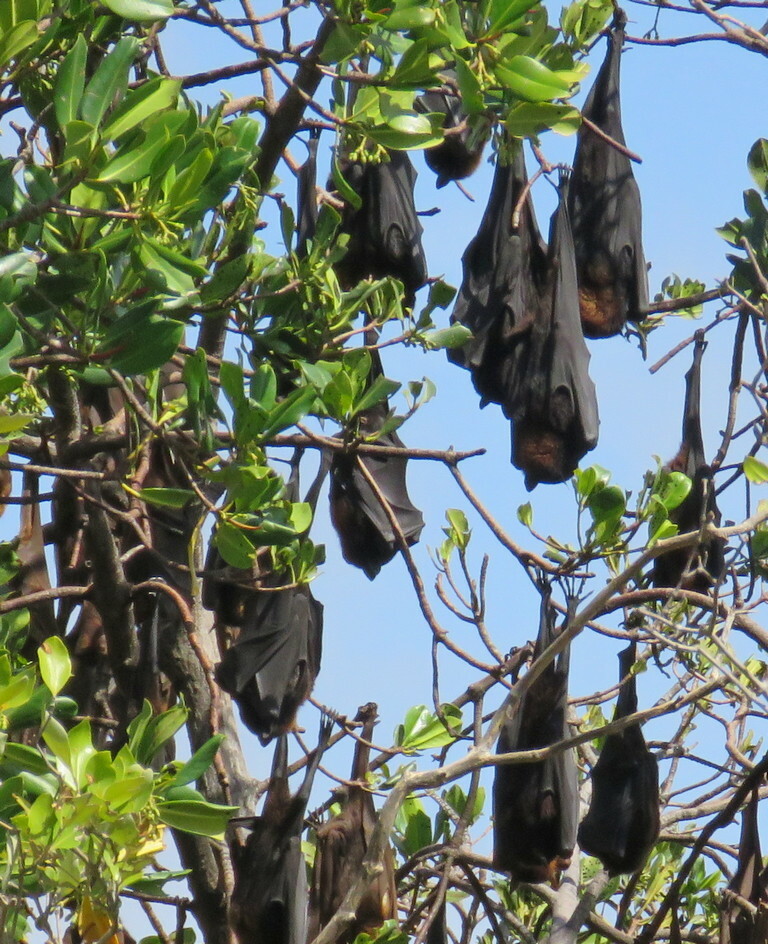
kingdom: Animalia
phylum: Chordata
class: Mammalia
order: Chiroptera
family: Pteropodidae
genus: Pteropus
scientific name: Pteropus alecto
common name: Black flying fox
